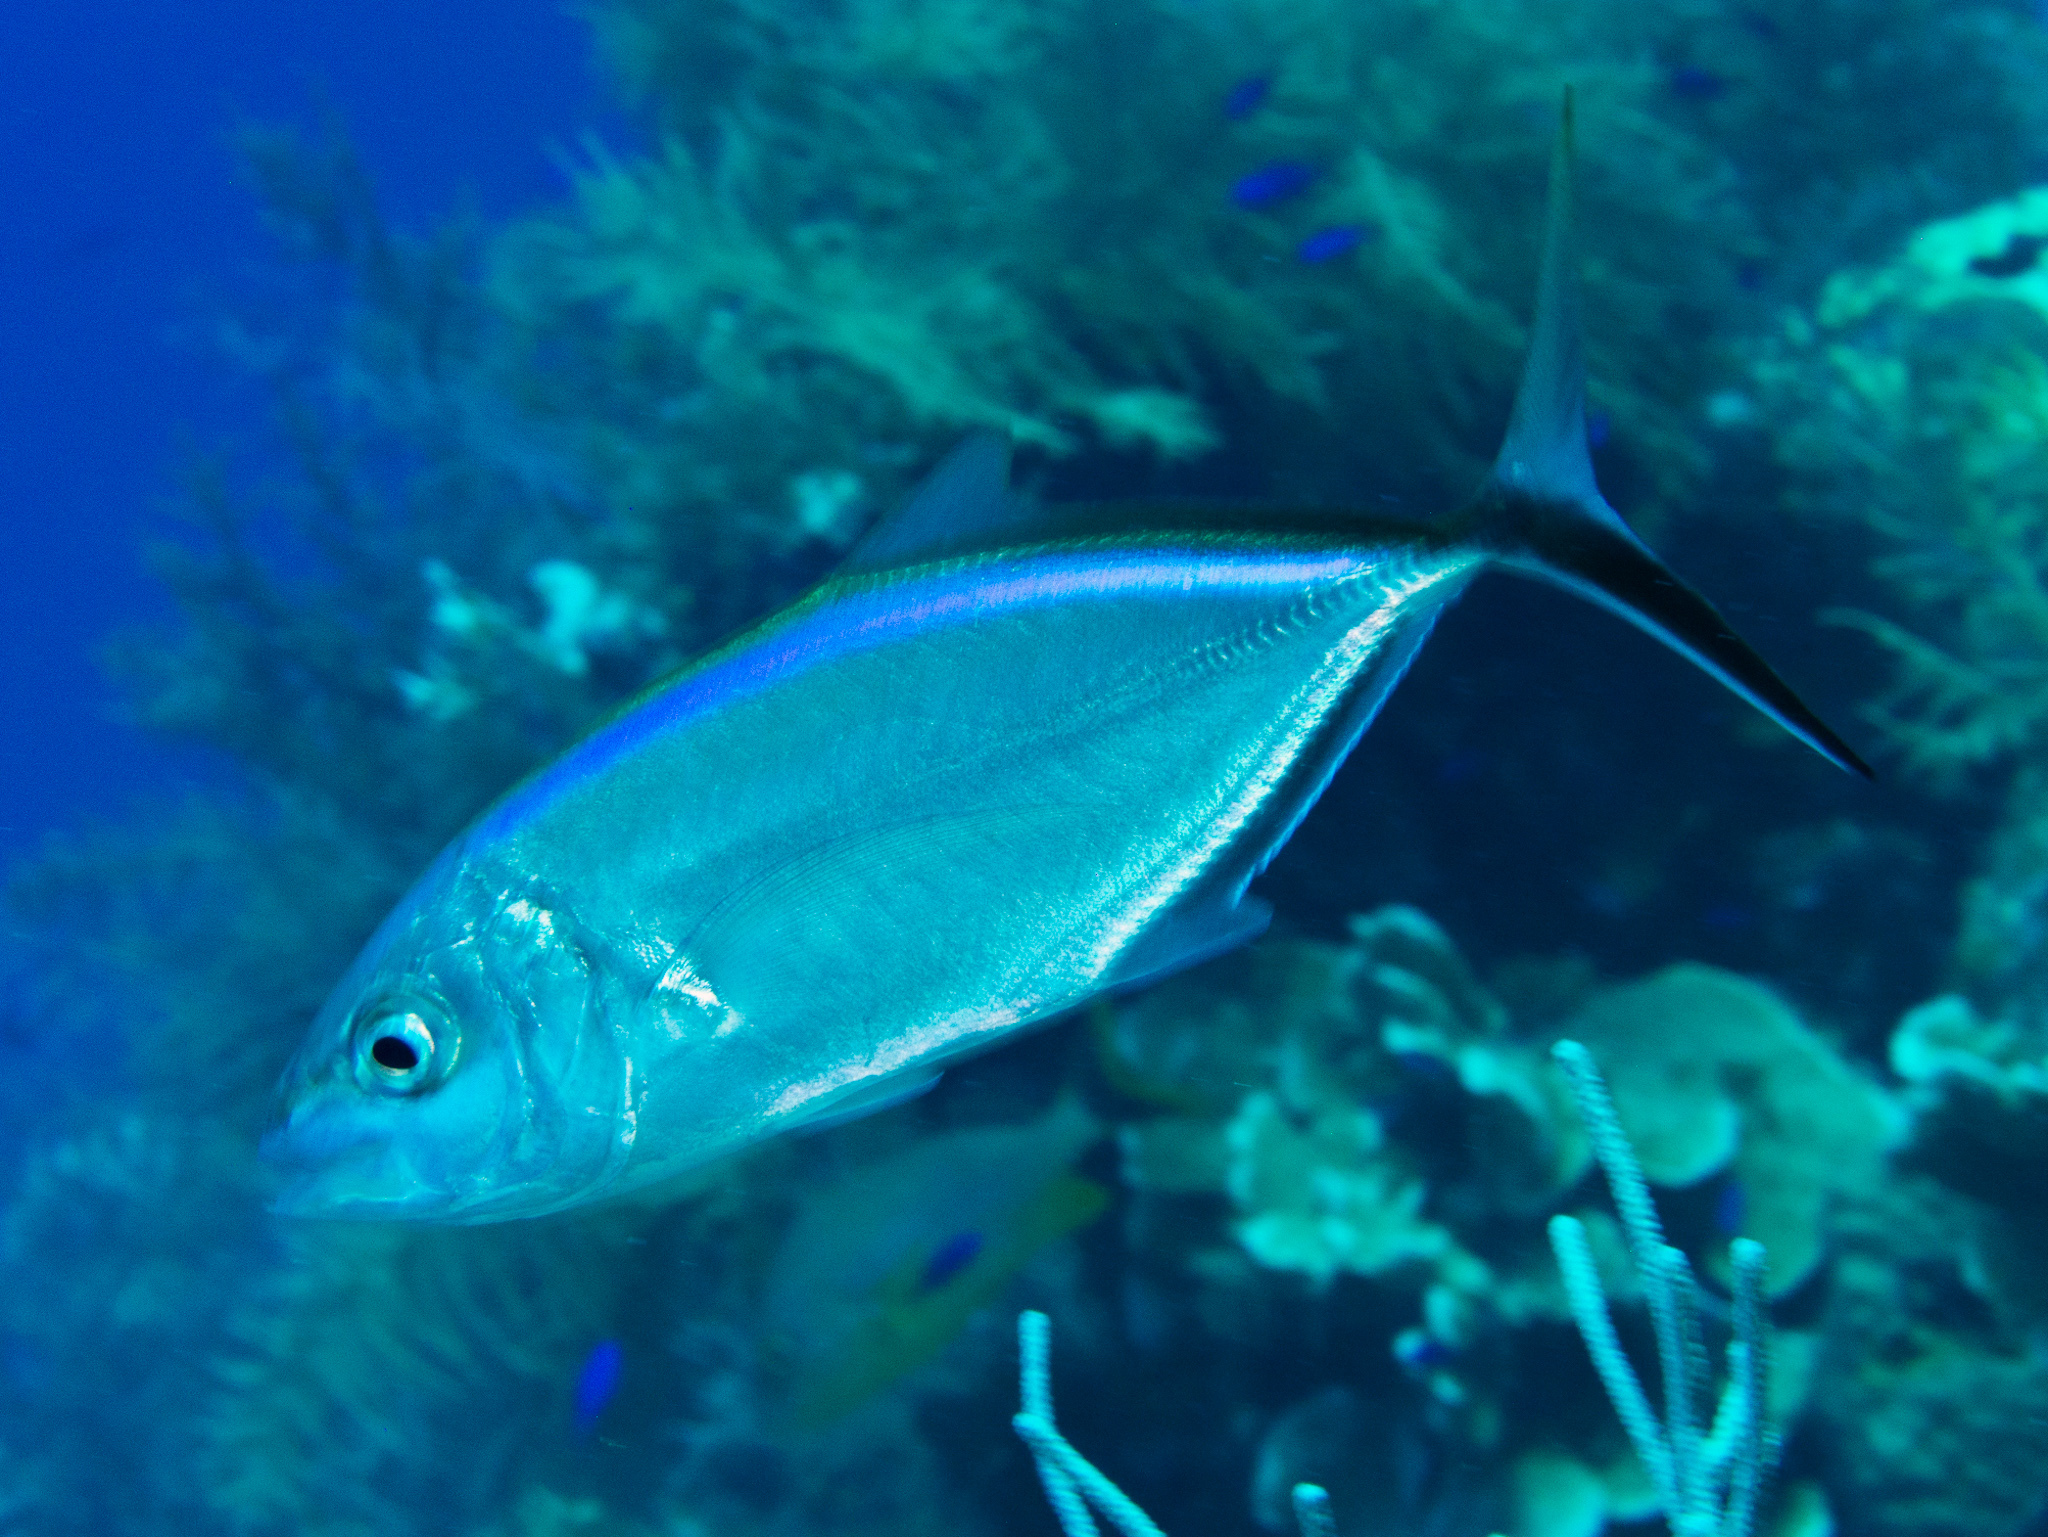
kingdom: Animalia
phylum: Chordata
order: Perciformes
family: Carangidae
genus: Caranx
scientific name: Caranx ruber
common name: Bar jack
